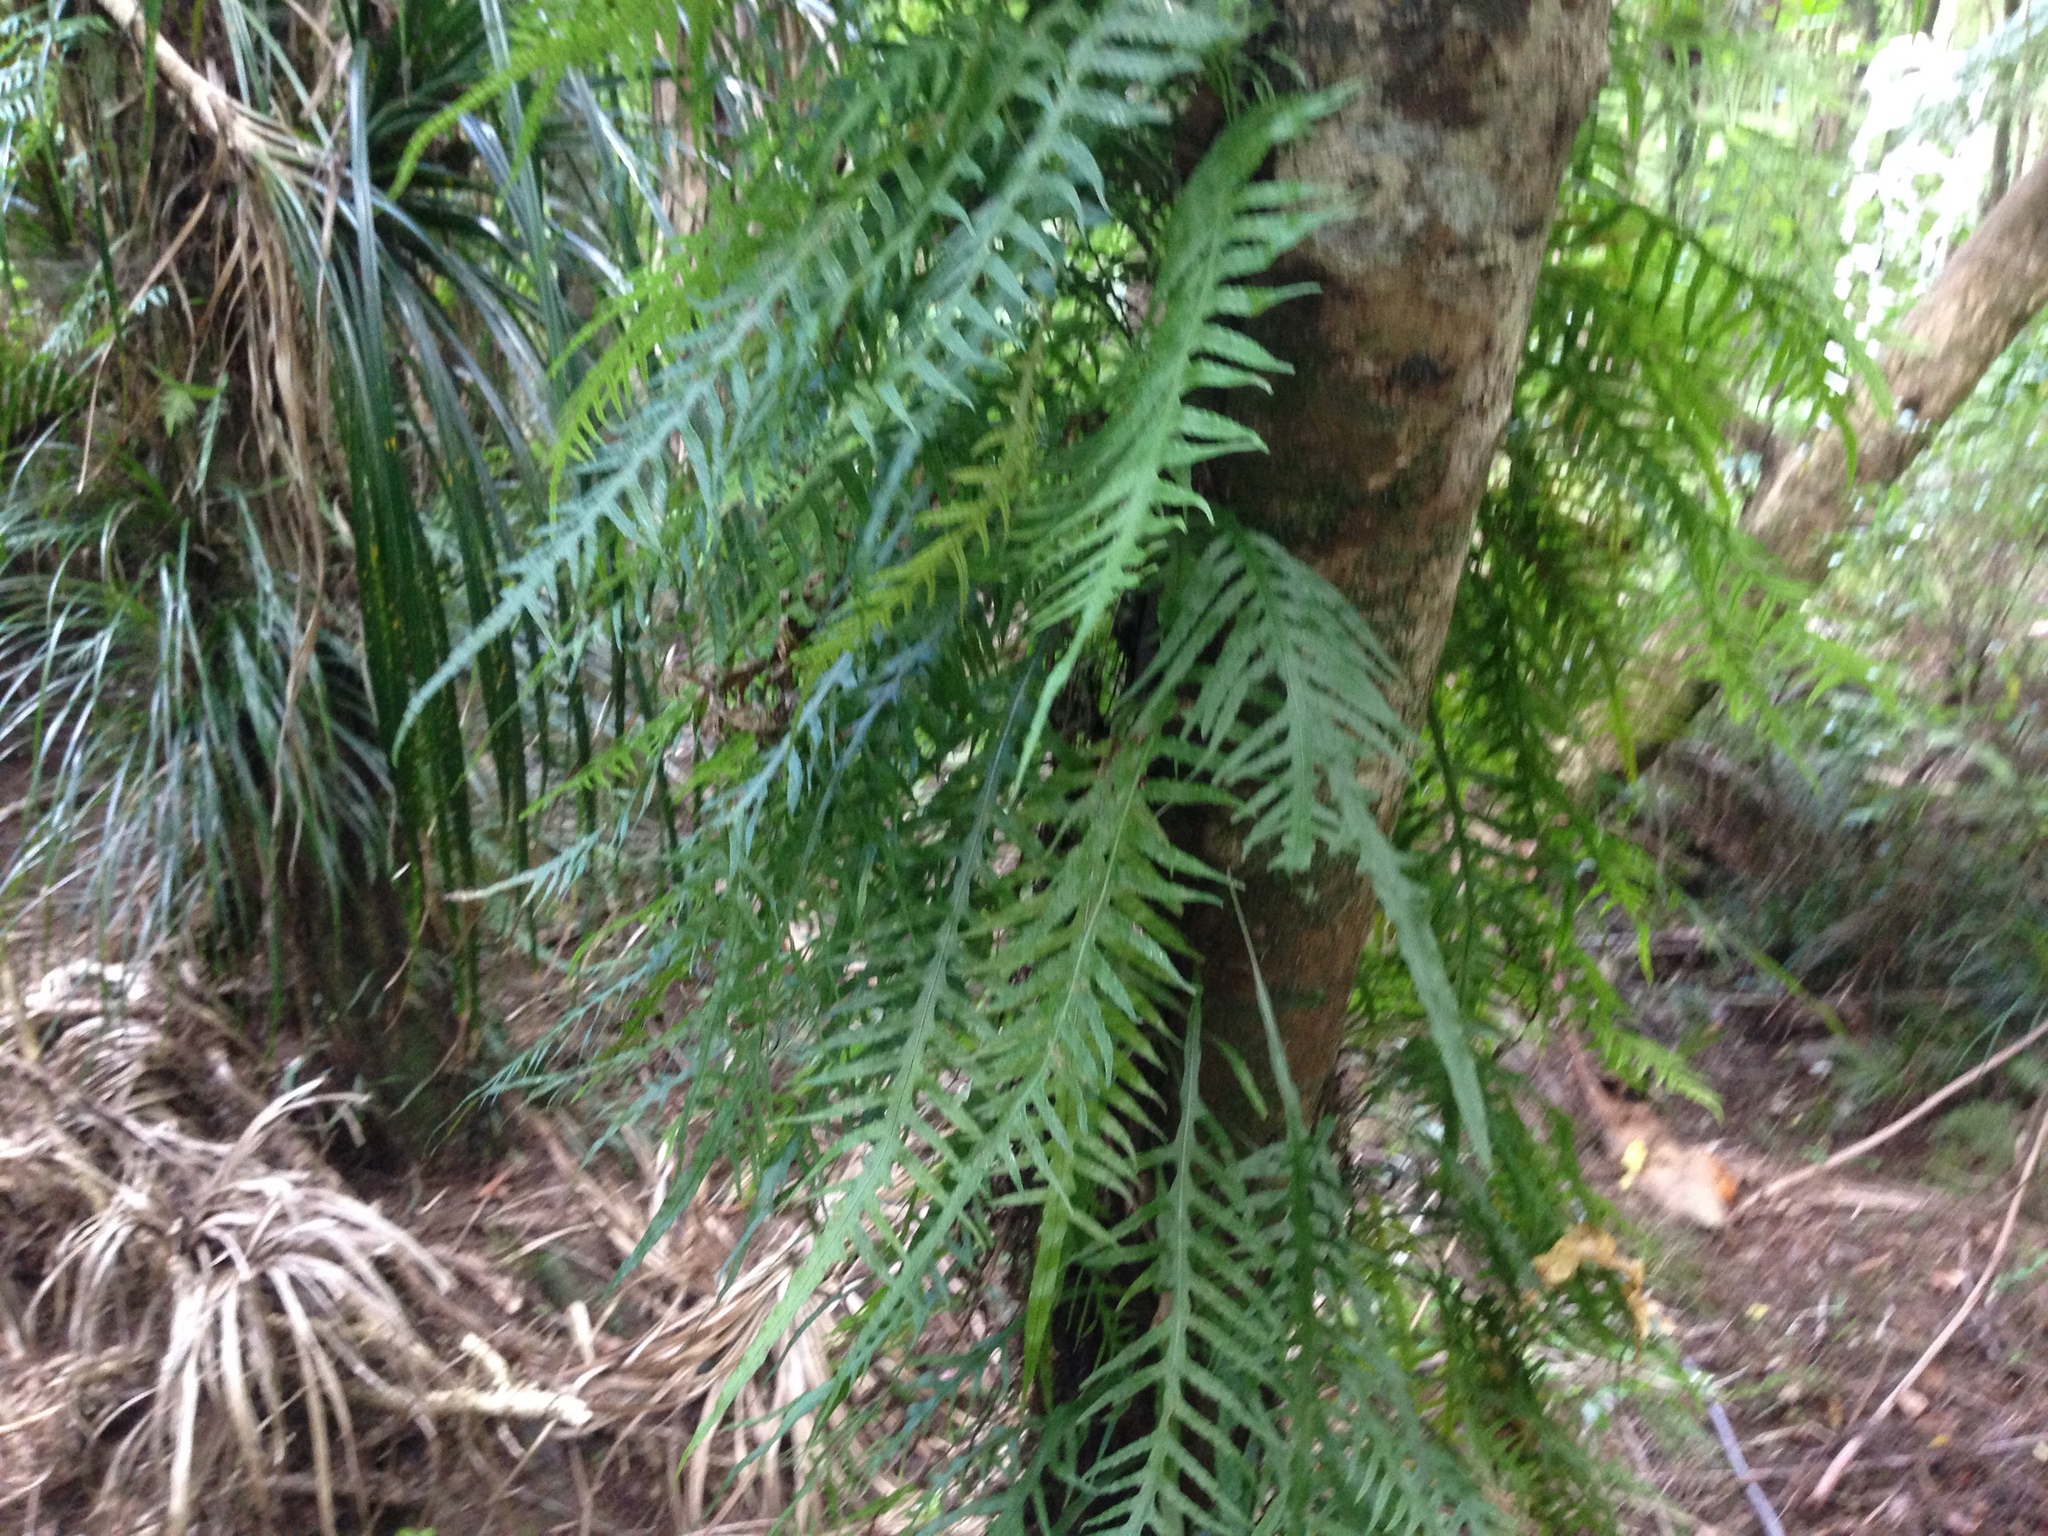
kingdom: Plantae
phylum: Tracheophyta
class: Polypodiopsida
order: Polypodiales
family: Polypodiaceae
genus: Lecanopteris
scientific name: Lecanopteris scandens
